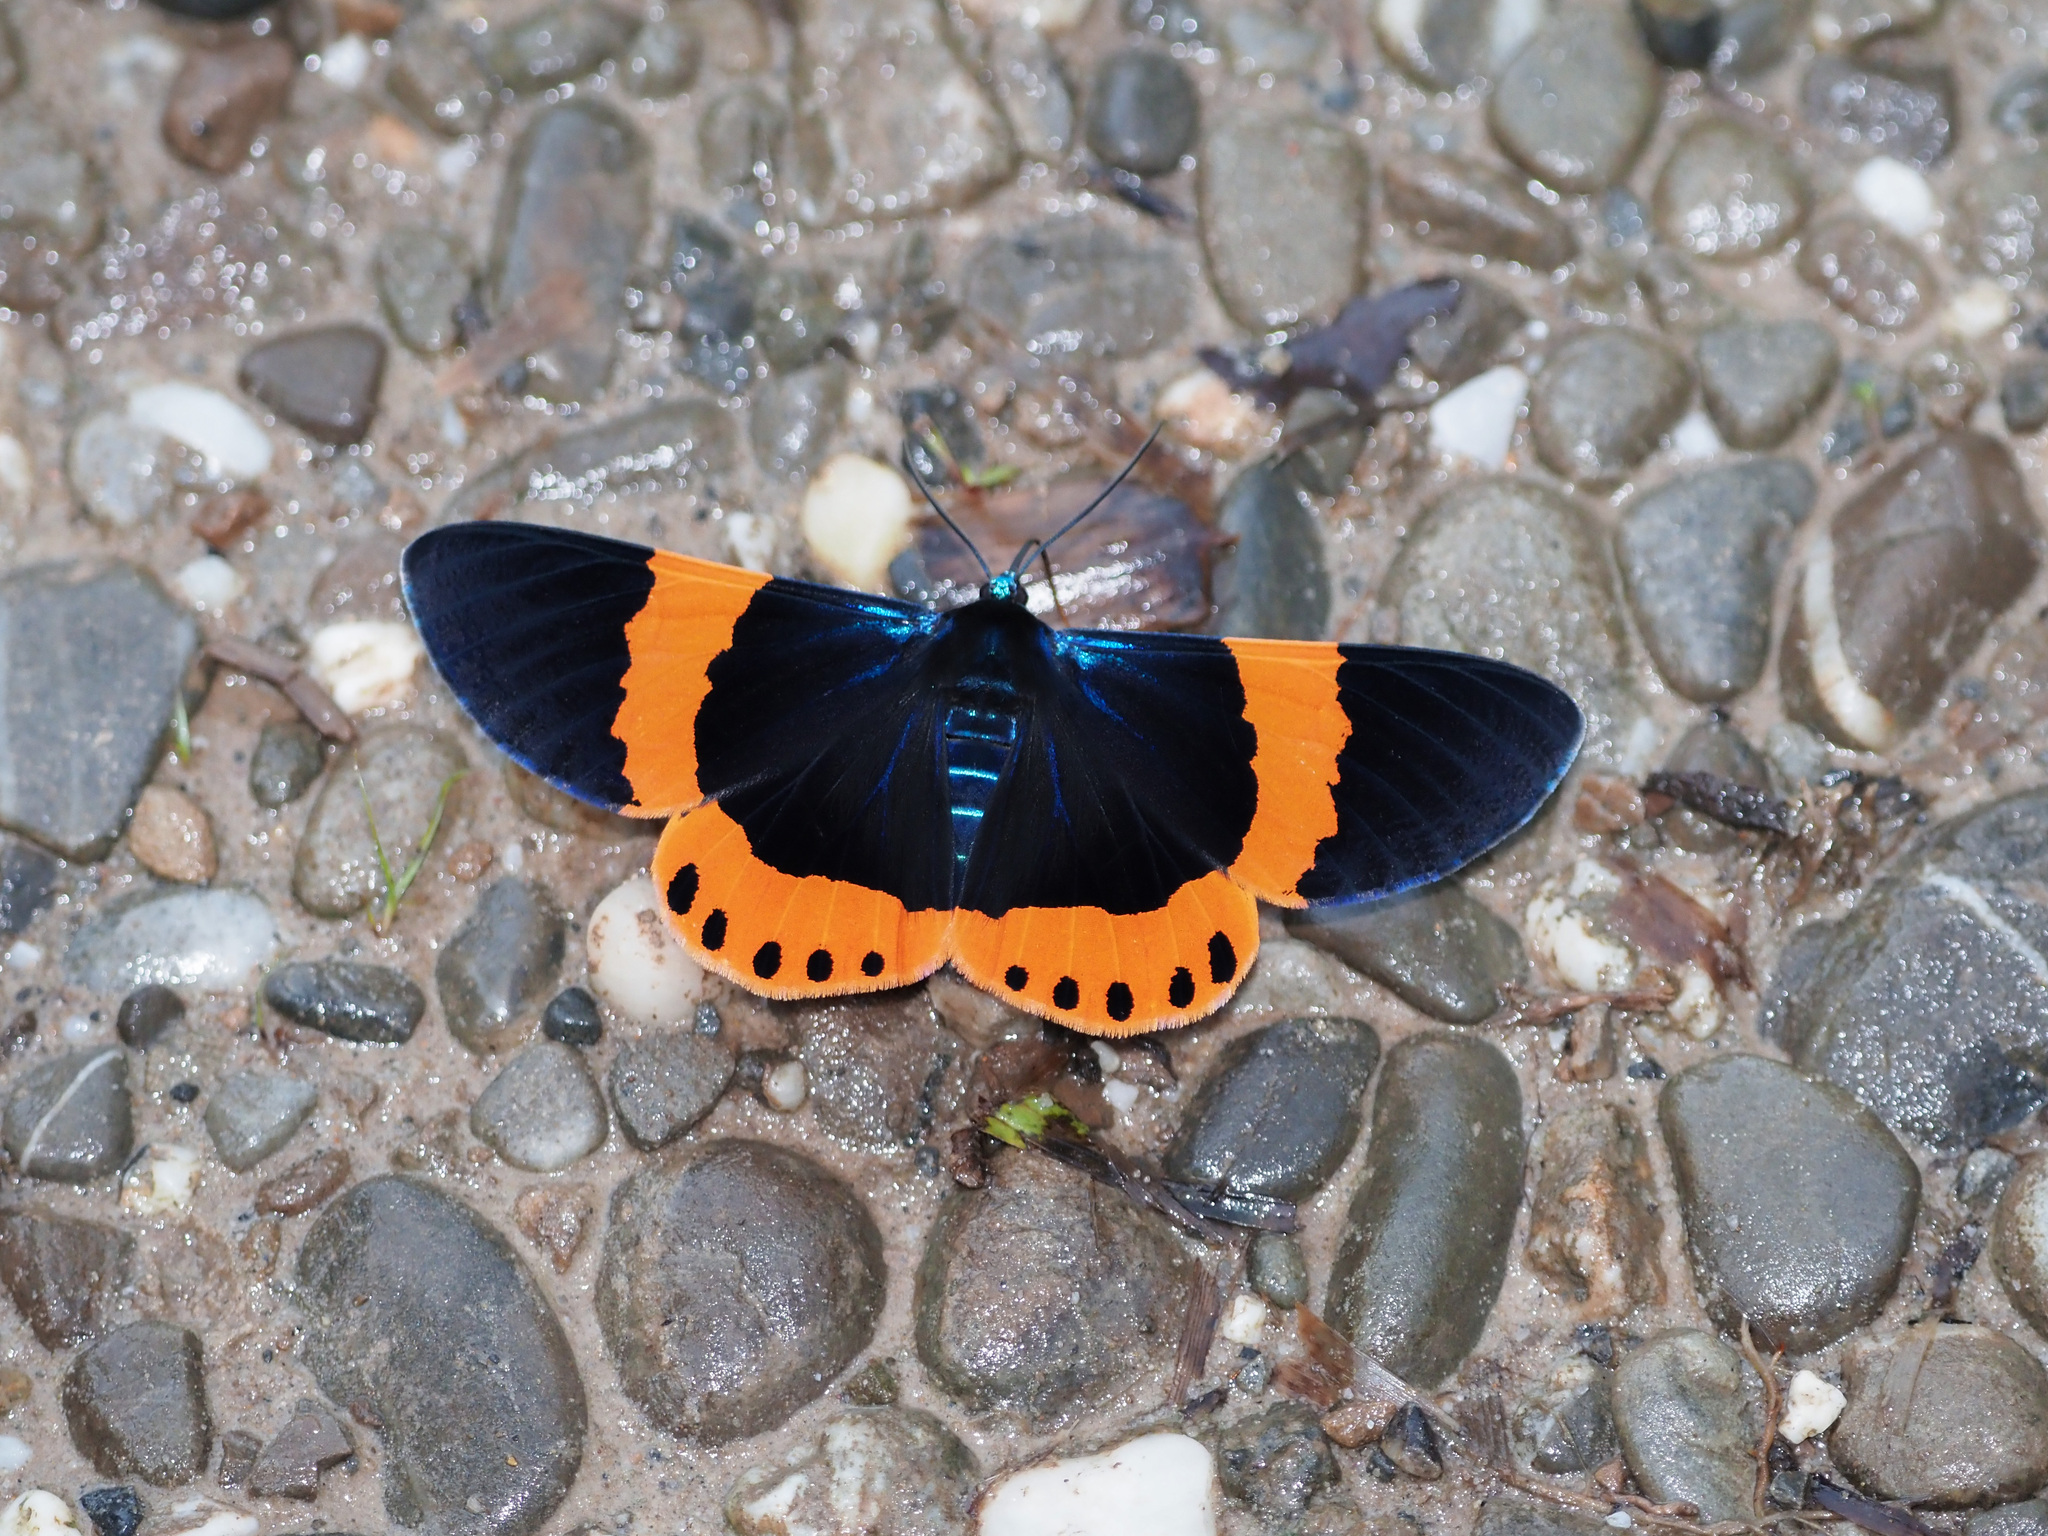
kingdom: Animalia
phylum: Arthropoda
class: Insecta
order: Lepidoptera
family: Geometridae
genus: Milionia
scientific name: Milionia basalis
